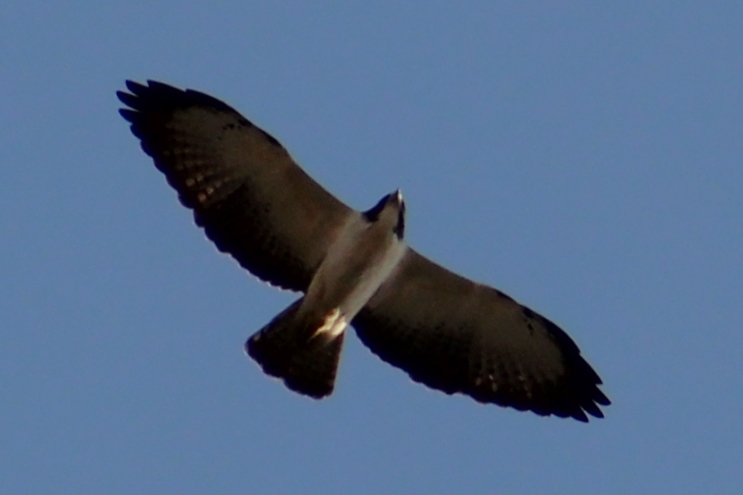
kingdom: Animalia
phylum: Chordata
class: Aves
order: Accipitriformes
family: Accipitridae
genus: Buteo
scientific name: Buteo brachyurus
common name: Short-tailed hawk
